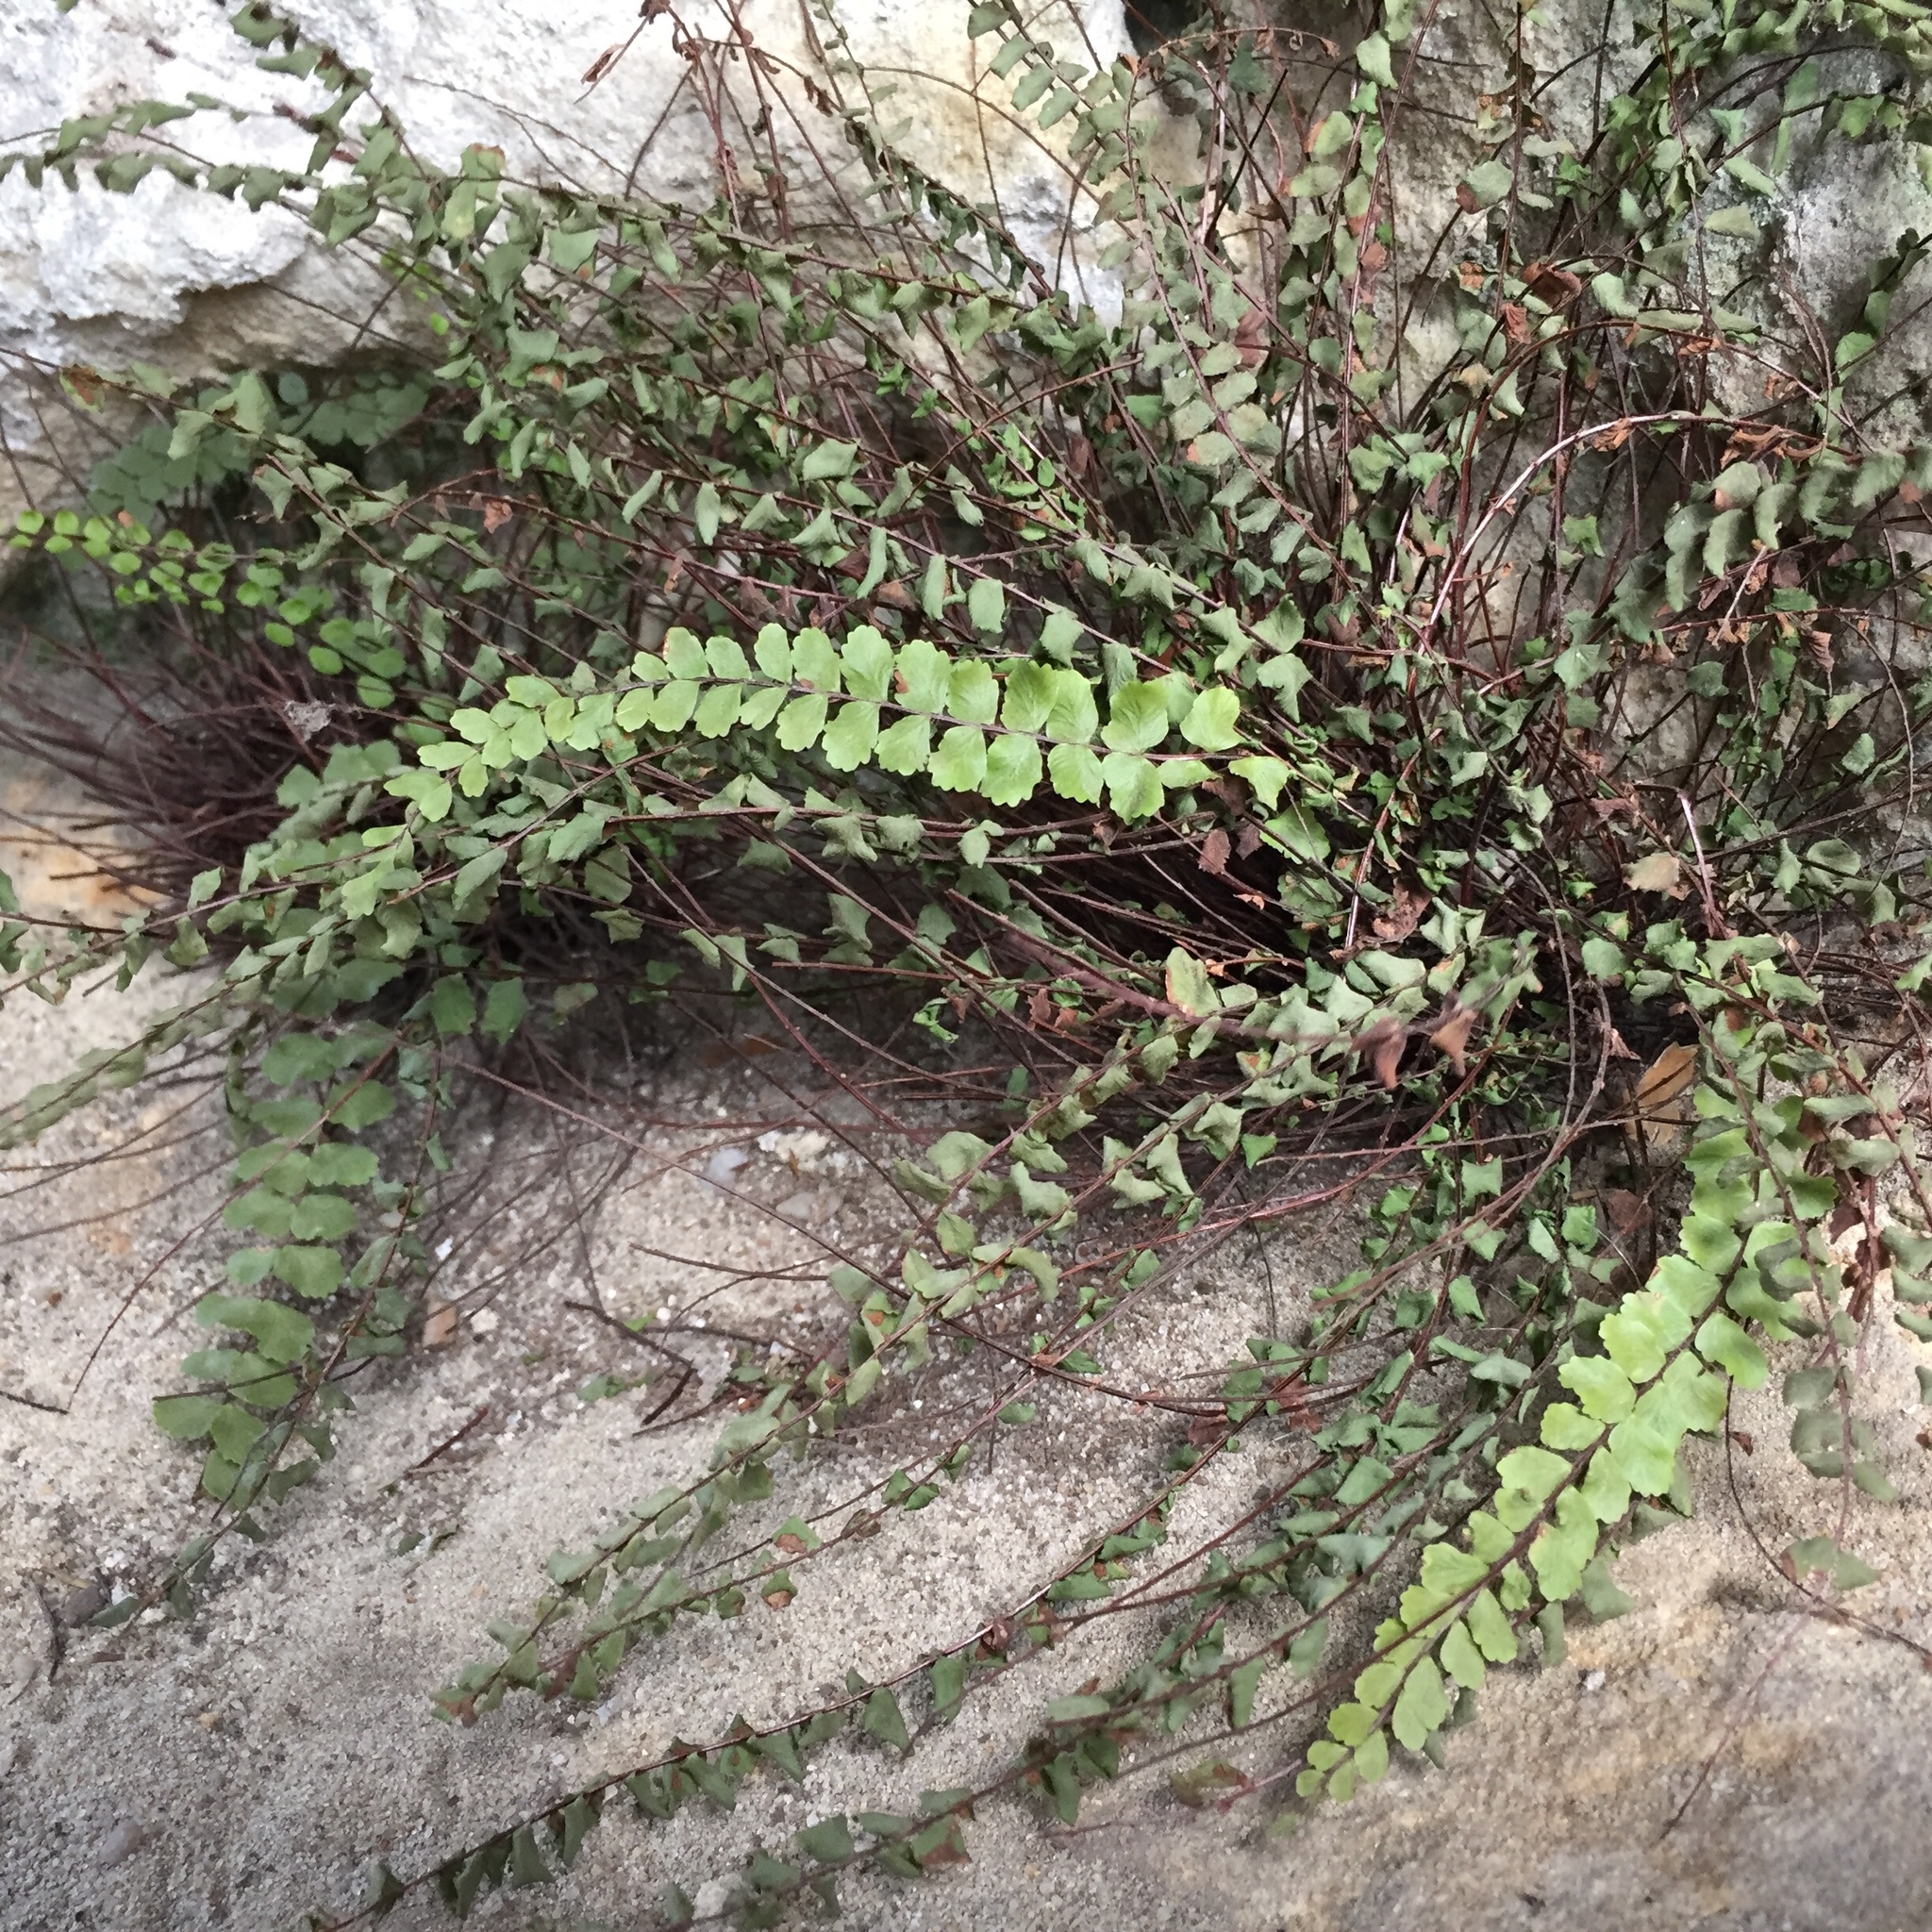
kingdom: Plantae
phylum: Tracheophyta
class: Polypodiopsida
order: Polypodiales
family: Aspleniaceae
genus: Asplenium
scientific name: Asplenium trichomanes
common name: Maidenhair spleenwort
